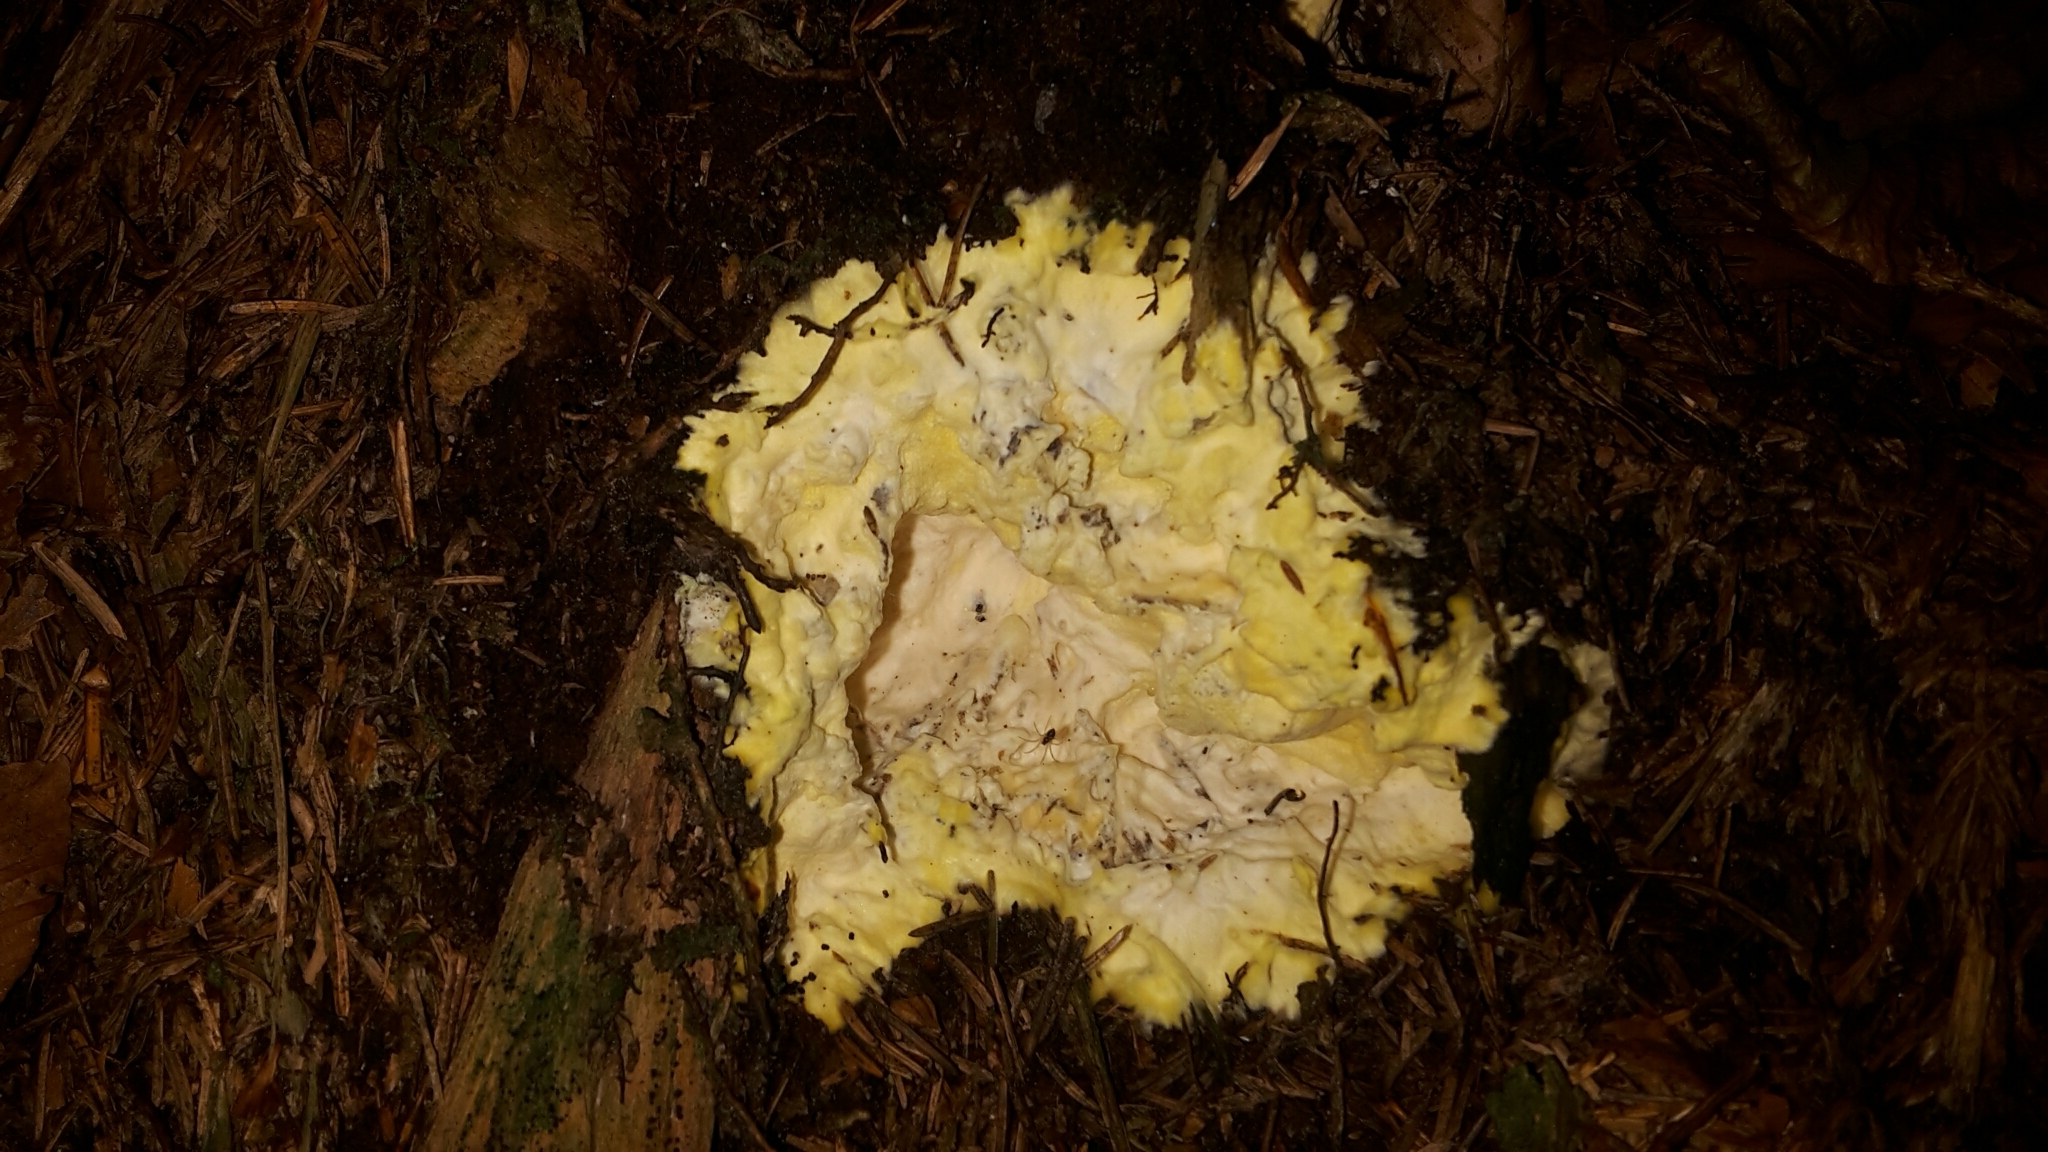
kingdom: Fungi
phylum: Ascomycota
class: Sordariomycetes
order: Hypocreales
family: Hypocreaceae
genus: Trichoderma
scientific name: Trichoderma citrinum
